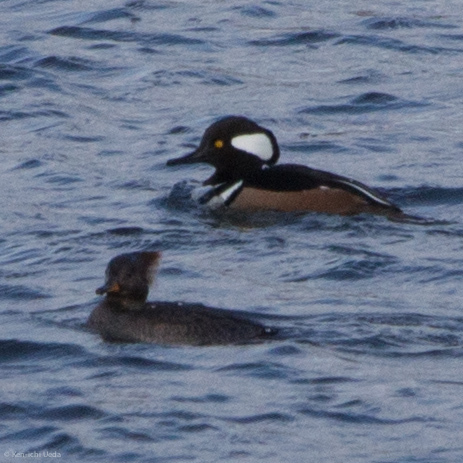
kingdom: Animalia
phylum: Chordata
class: Aves
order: Anseriformes
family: Anatidae
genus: Lophodytes
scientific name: Lophodytes cucullatus
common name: Hooded merganser
